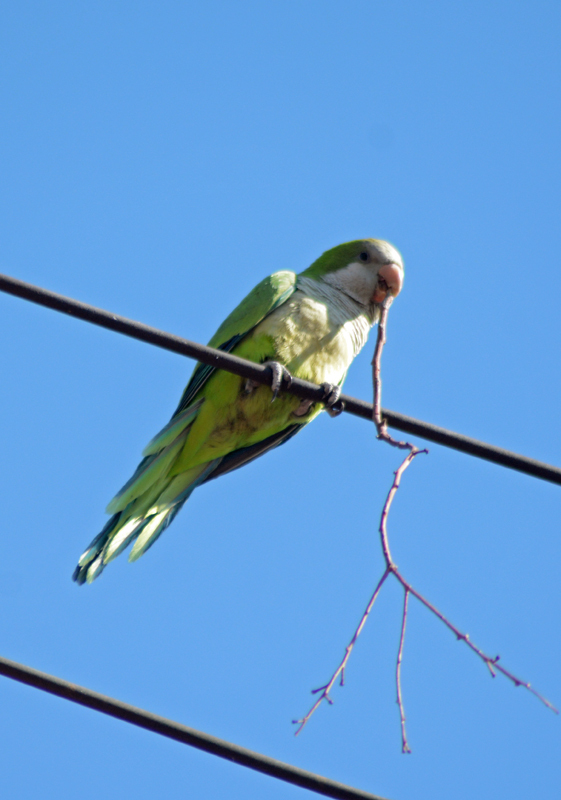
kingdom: Animalia
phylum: Chordata
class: Aves
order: Psittaciformes
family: Psittacidae
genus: Myiopsitta
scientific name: Myiopsitta monachus
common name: Monk parakeet
